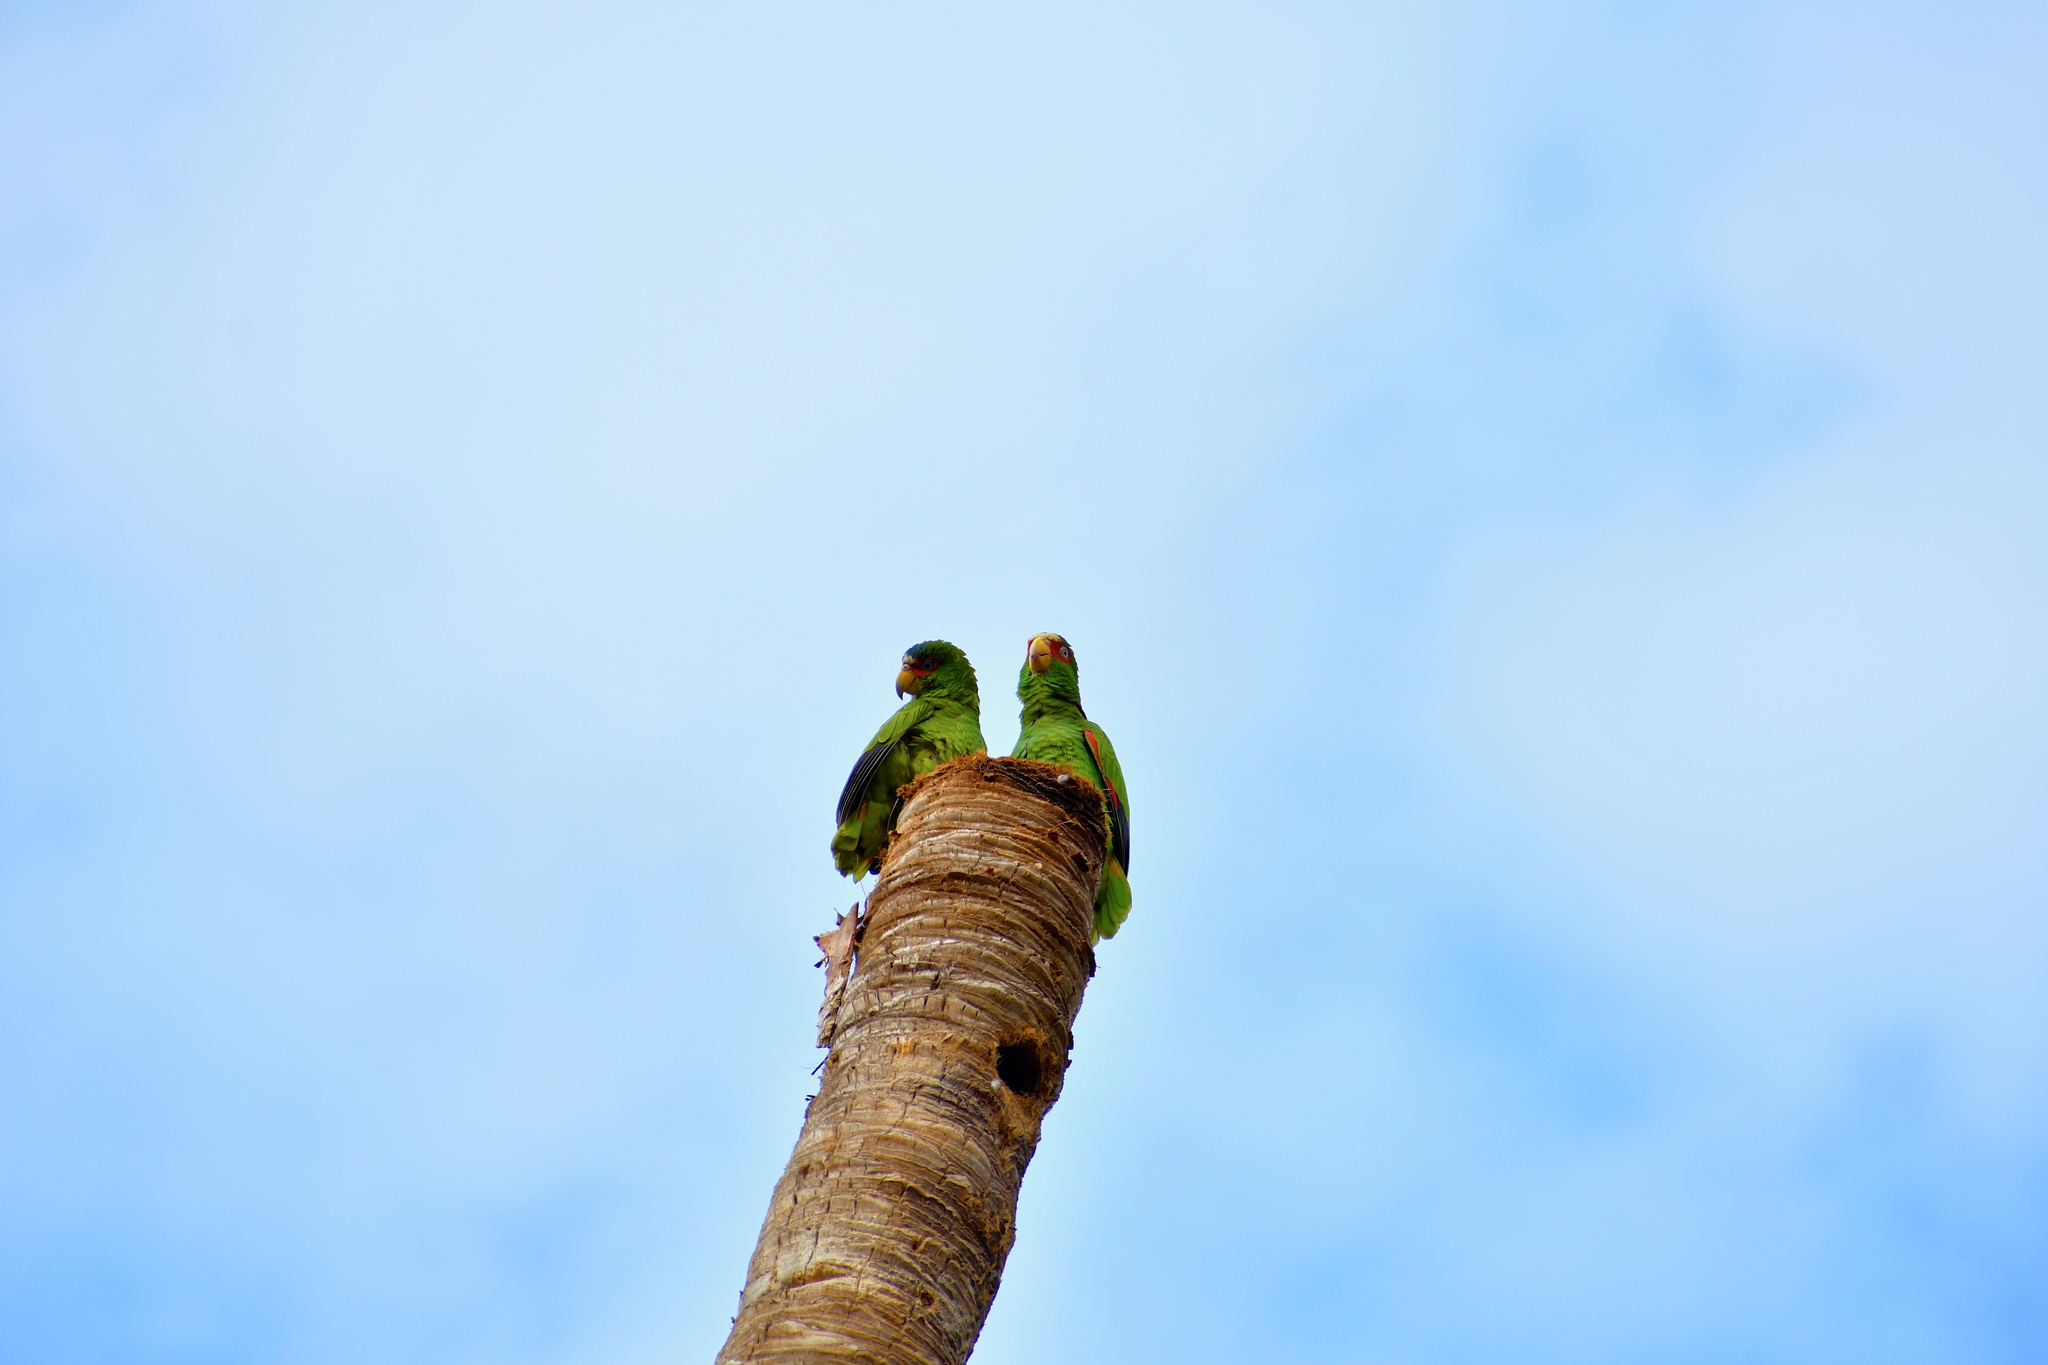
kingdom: Animalia
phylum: Chordata
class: Aves
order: Psittaciformes
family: Psittacidae
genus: Amazona
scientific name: Amazona albifrons
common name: White-fronted amazon
